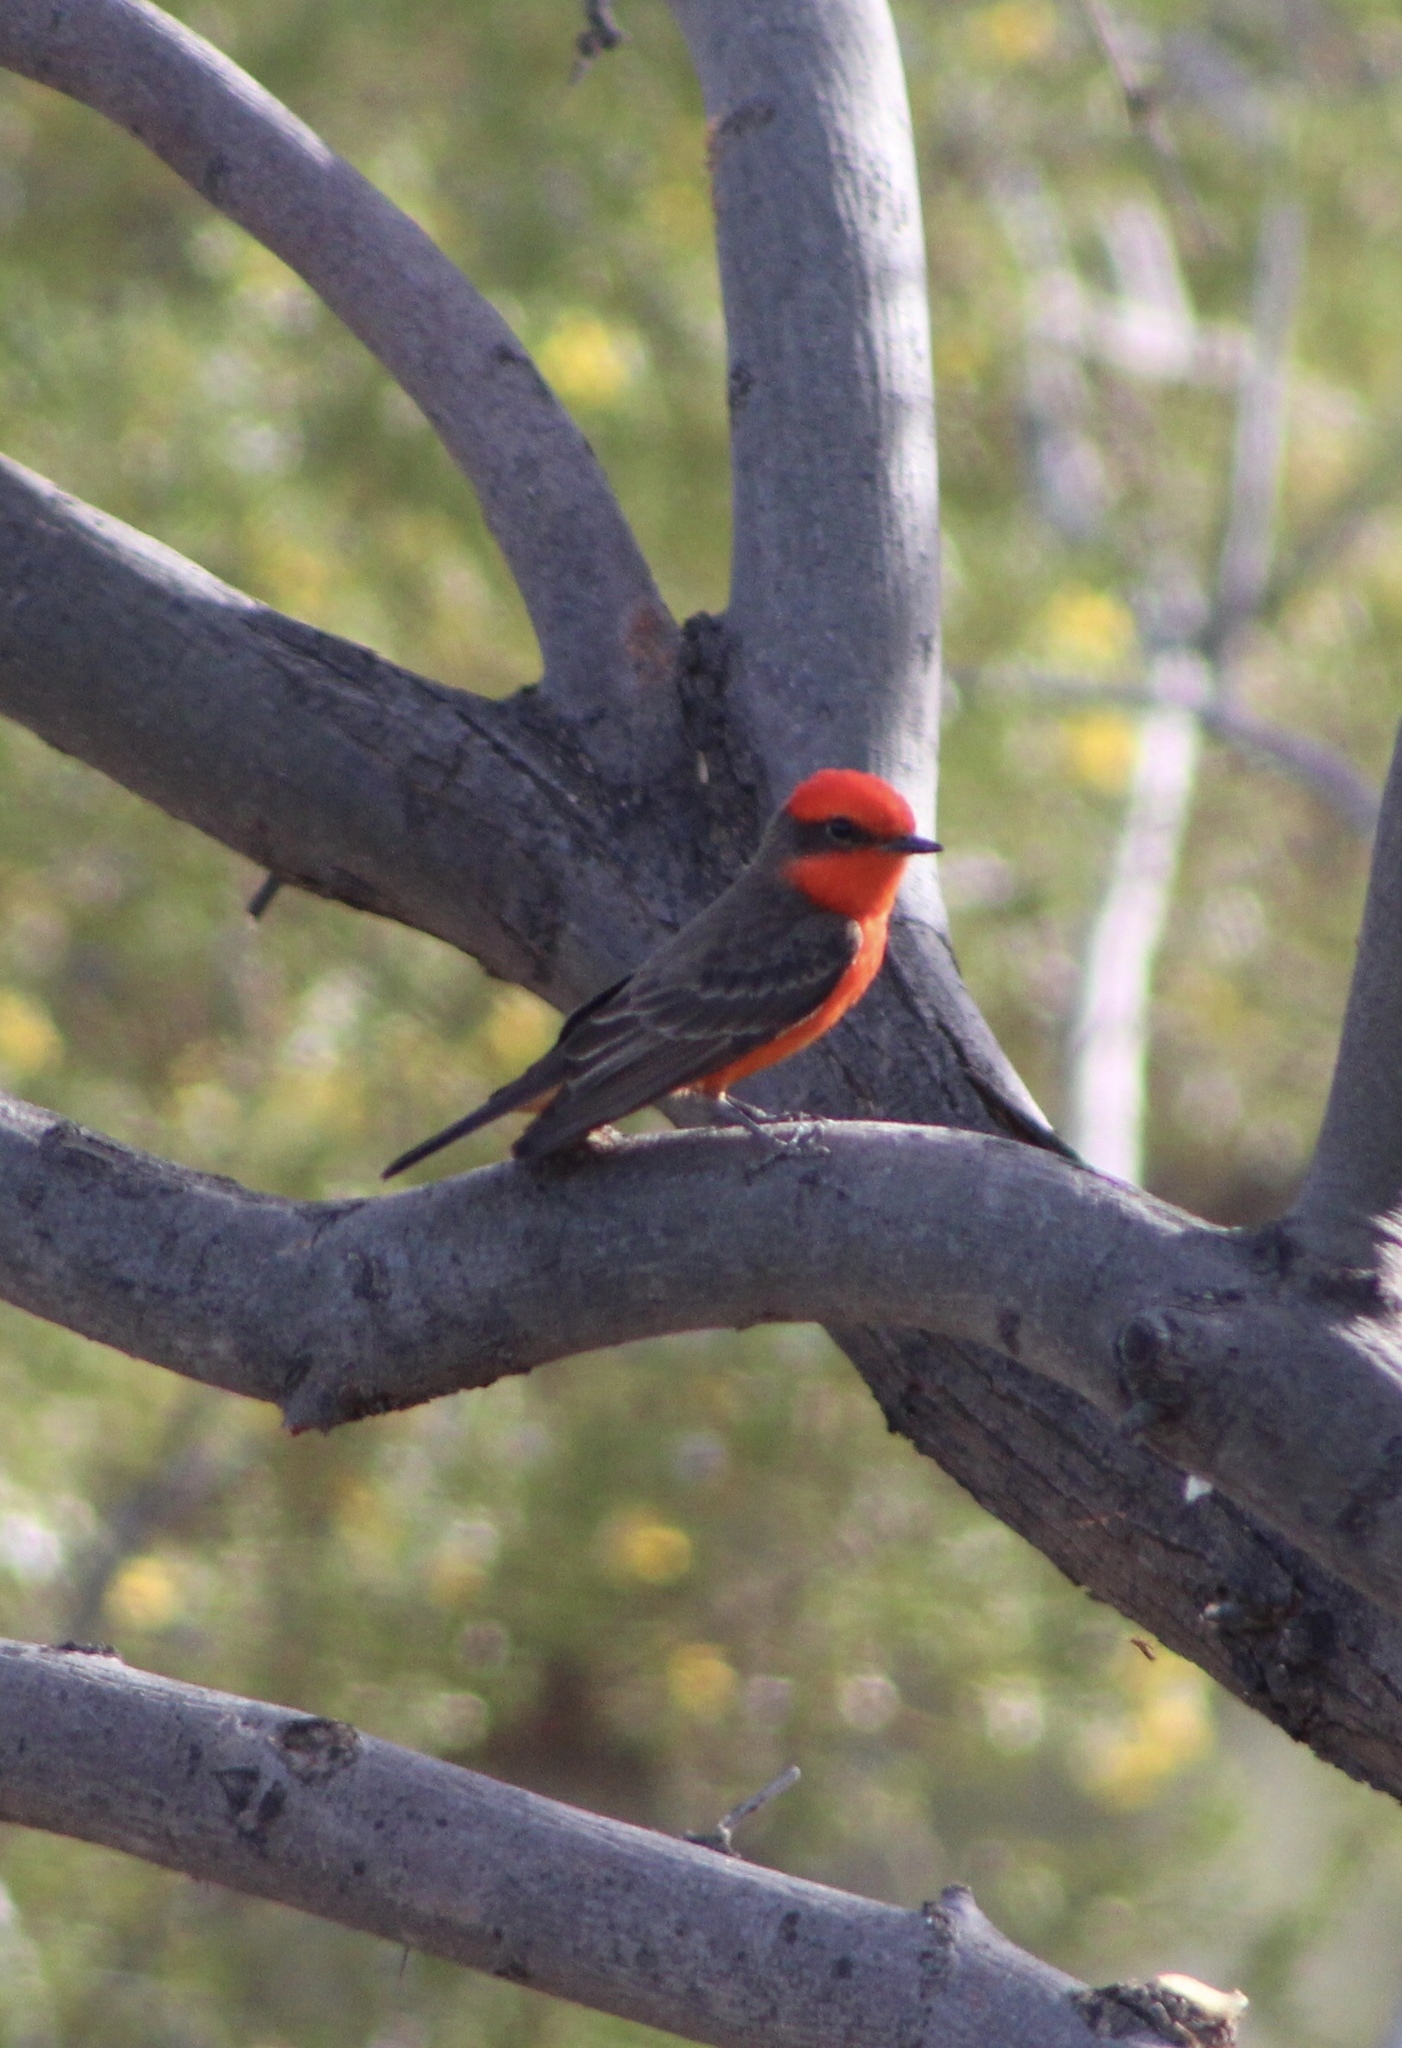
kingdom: Animalia
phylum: Chordata
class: Aves
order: Passeriformes
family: Tyrannidae
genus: Pyrocephalus
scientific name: Pyrocephalus rubinus
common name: Vermilion flycatcher
